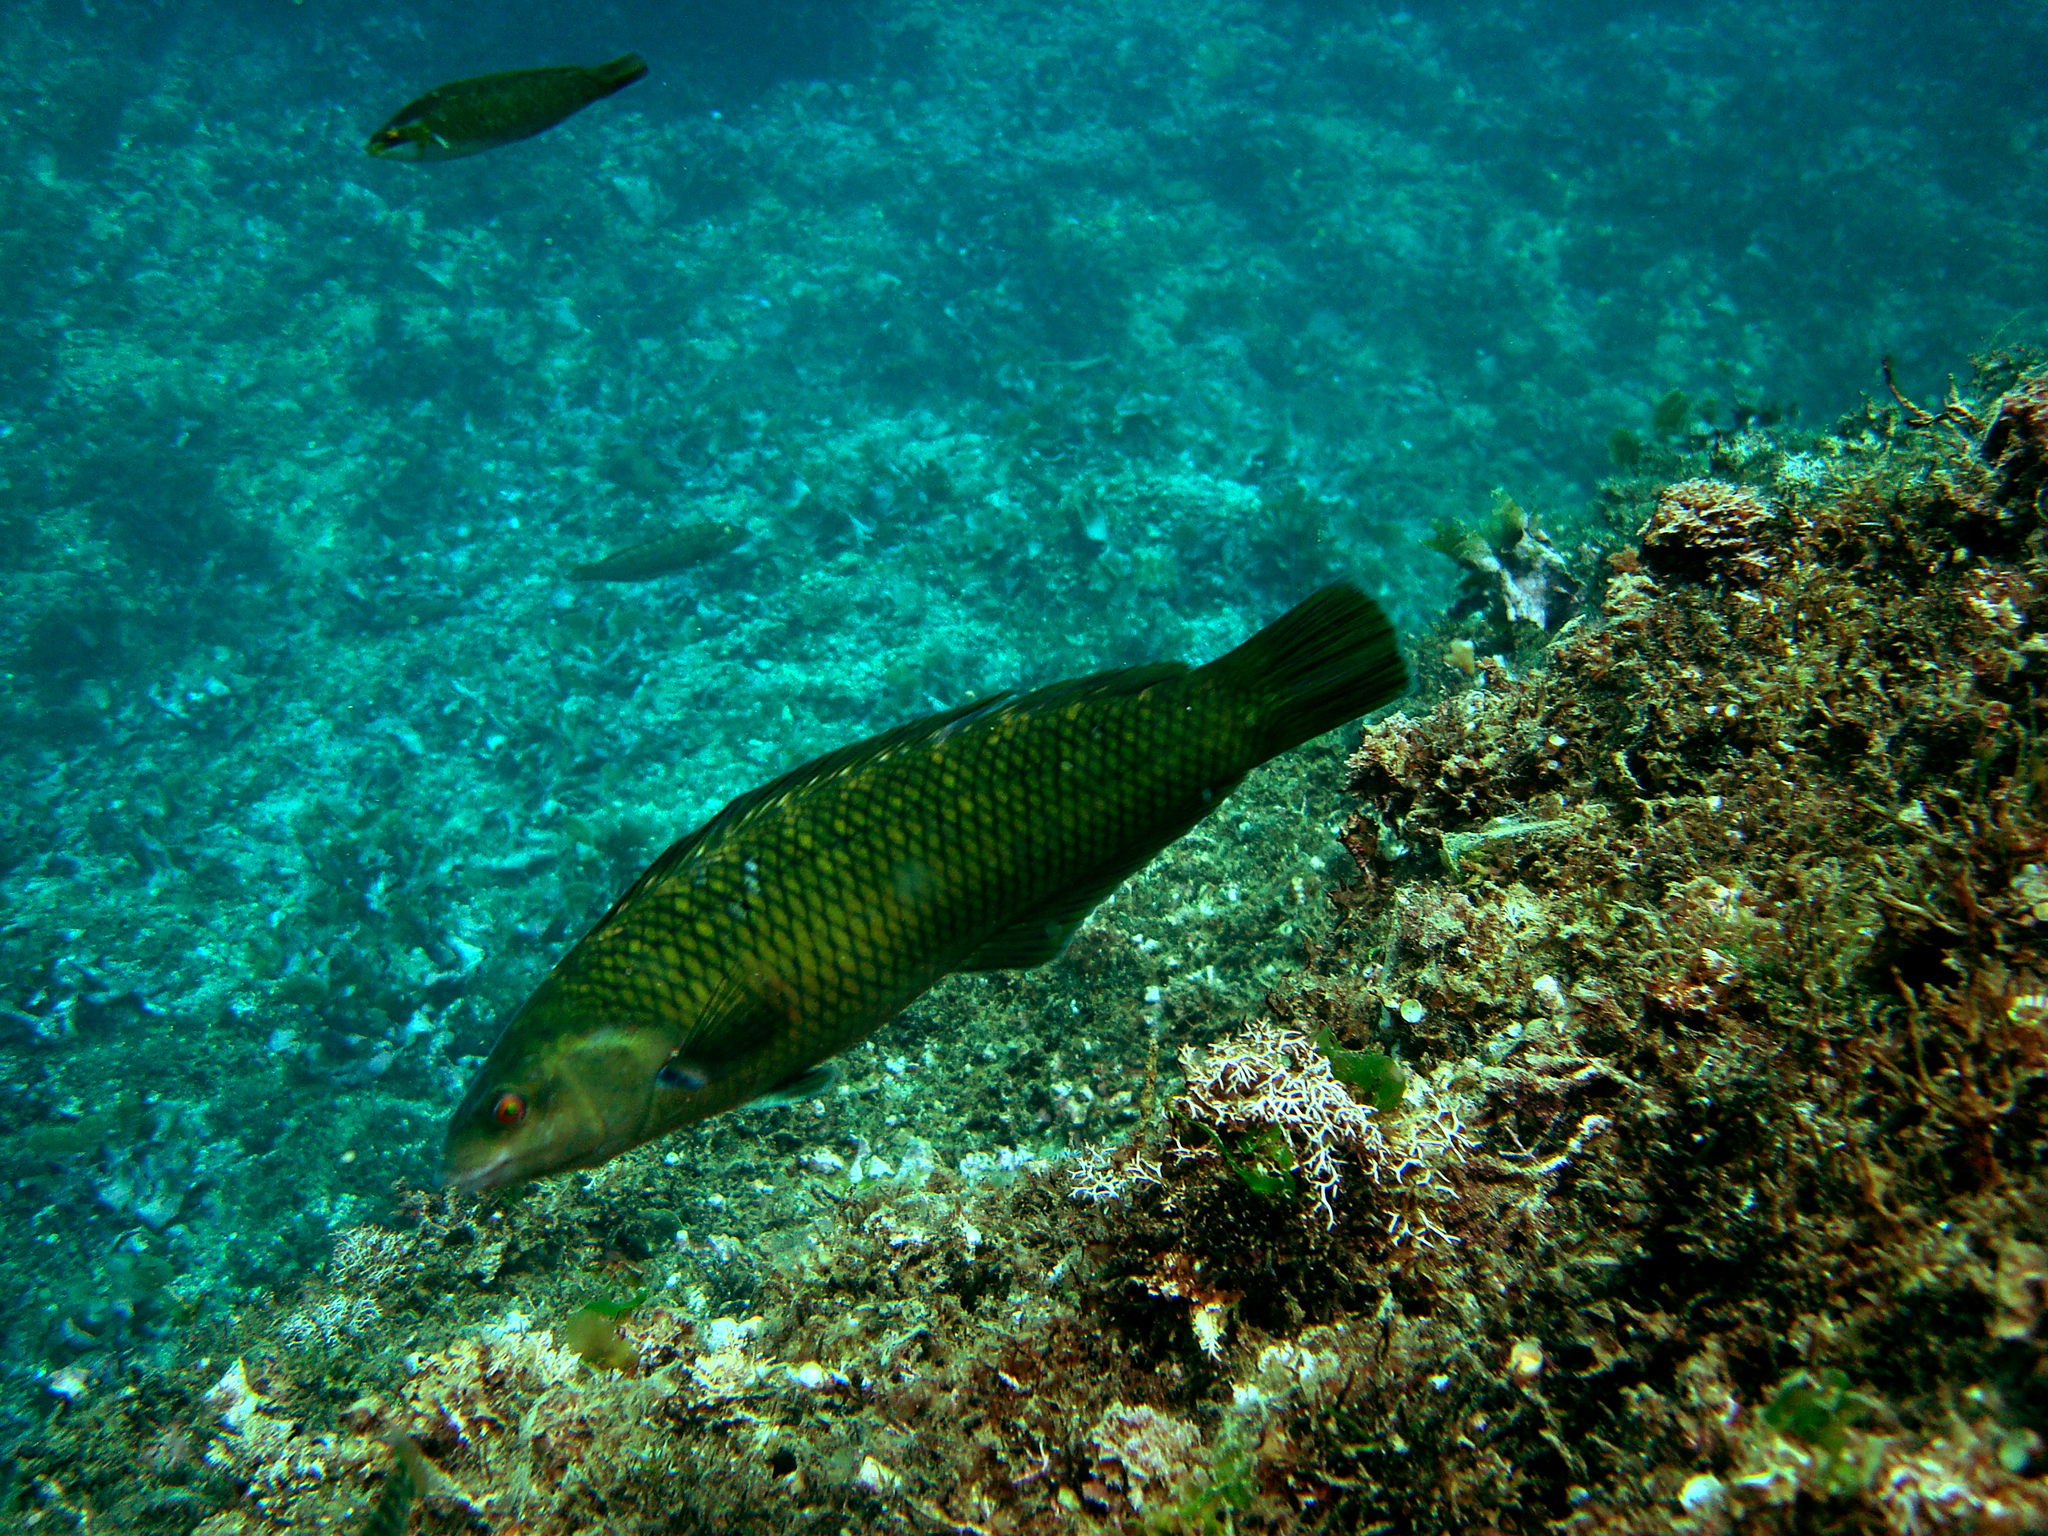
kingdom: Animalia
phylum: Chordata
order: Perciformes
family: Labridae
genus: Malapterus
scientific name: Malapterus reticulatus
